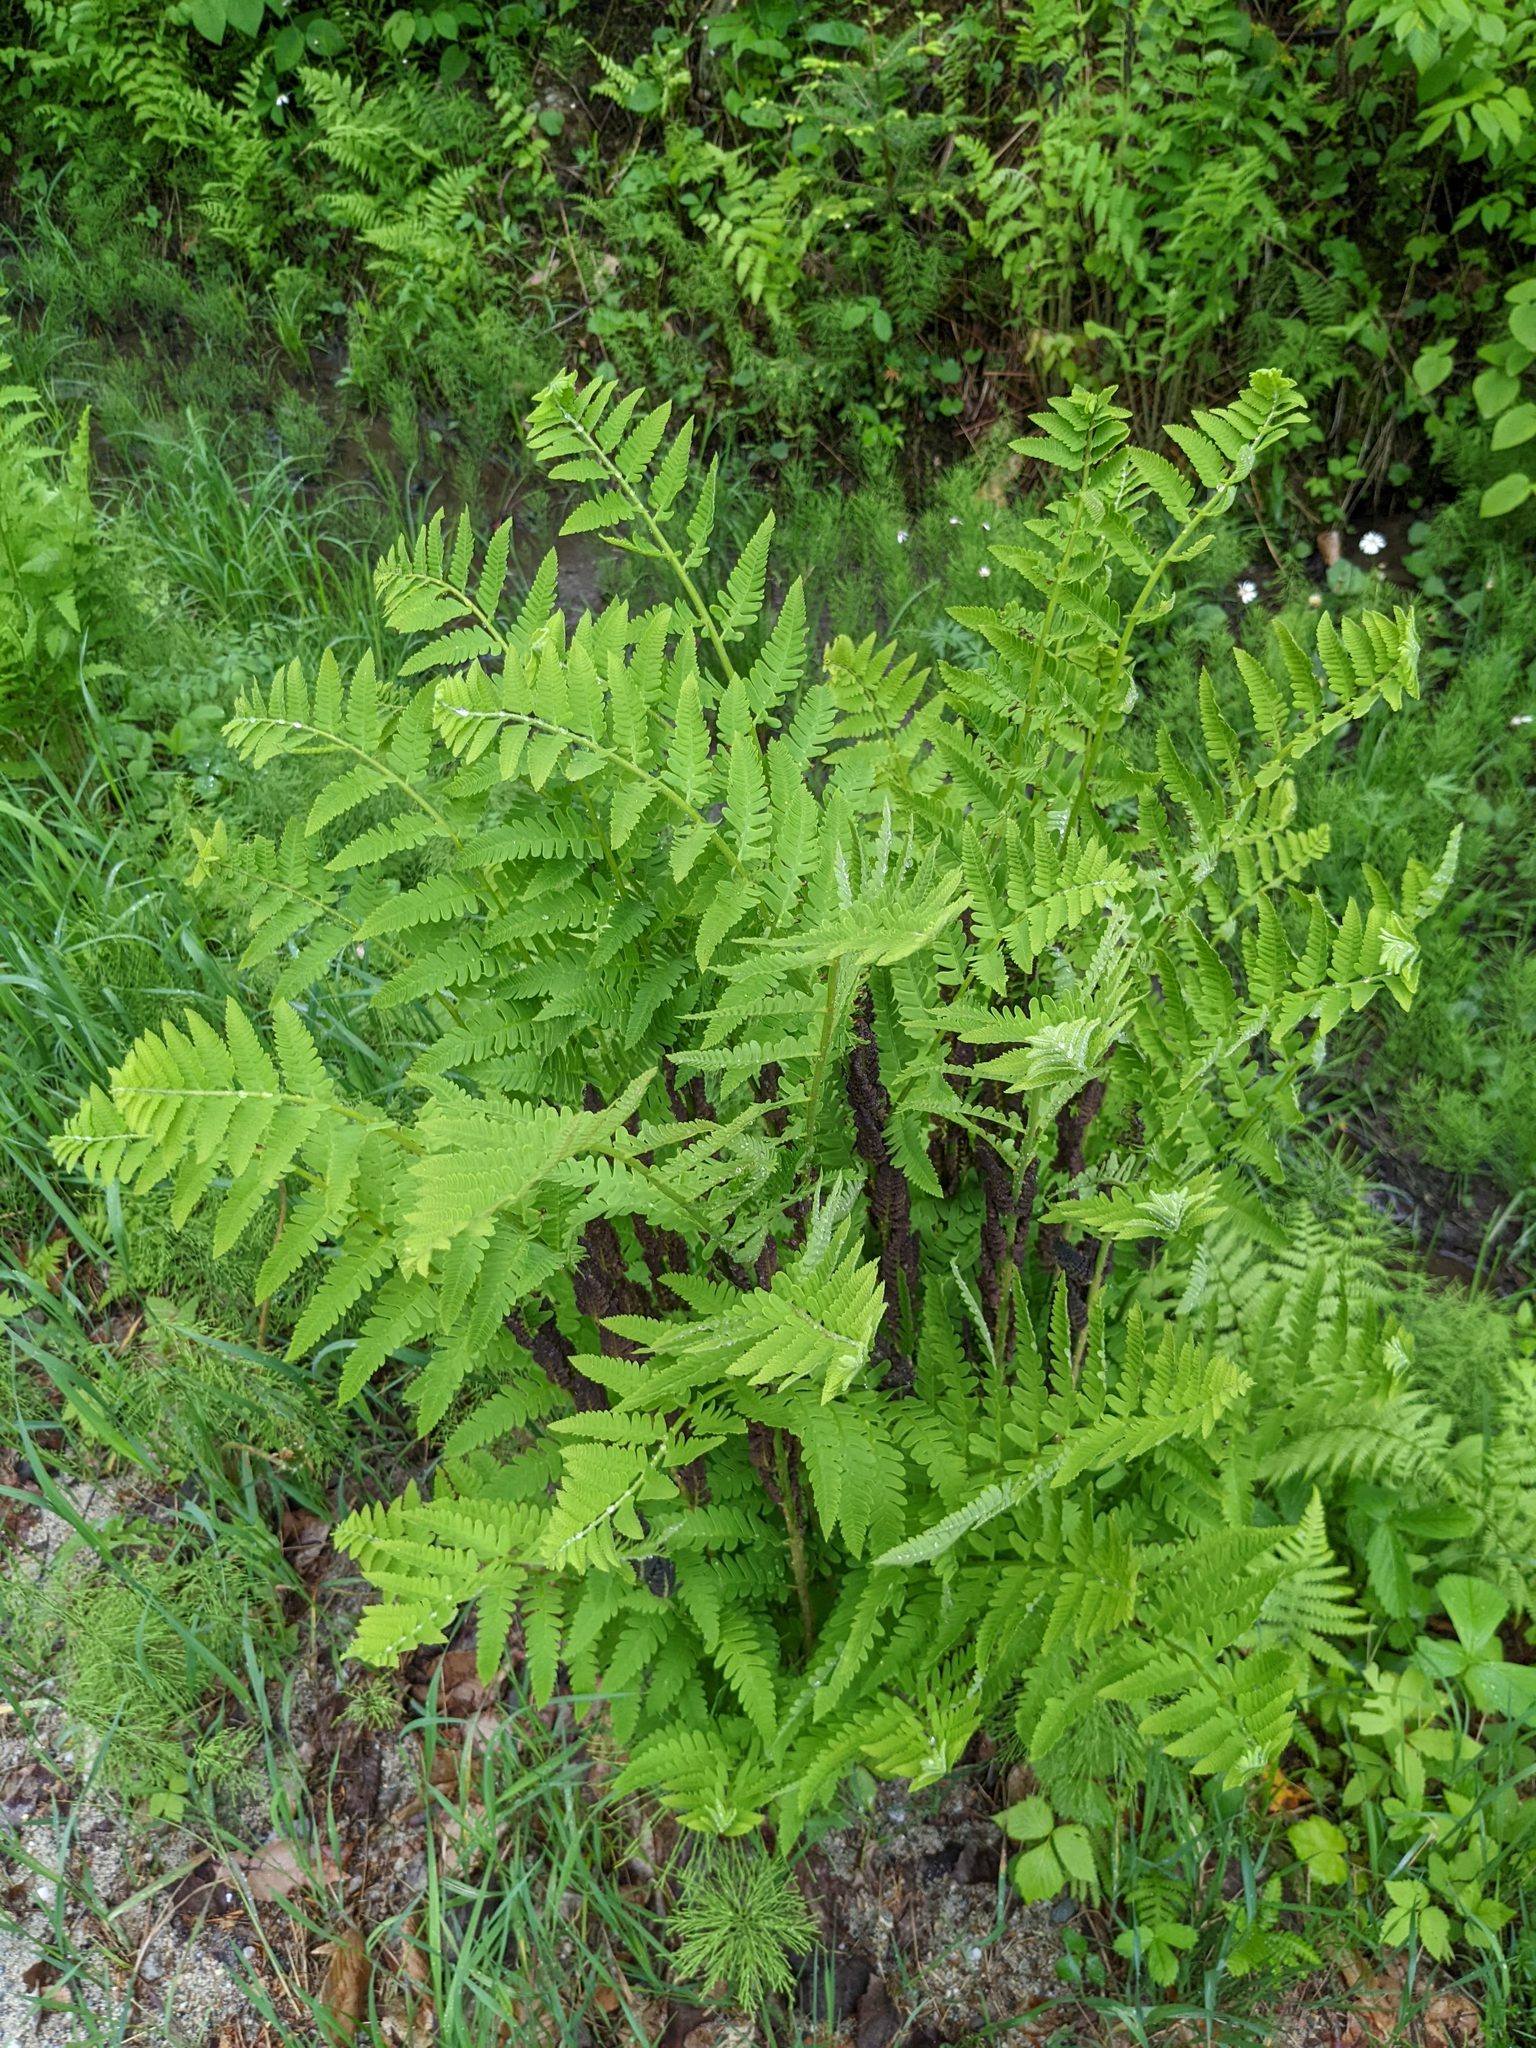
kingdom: Plantae
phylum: Tracheophyta
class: Polypodiopsida
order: Osmundales
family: Osmundaceae
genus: Claytosmunda
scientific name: Claytosmunda claytoniana
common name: Clayton's fern
